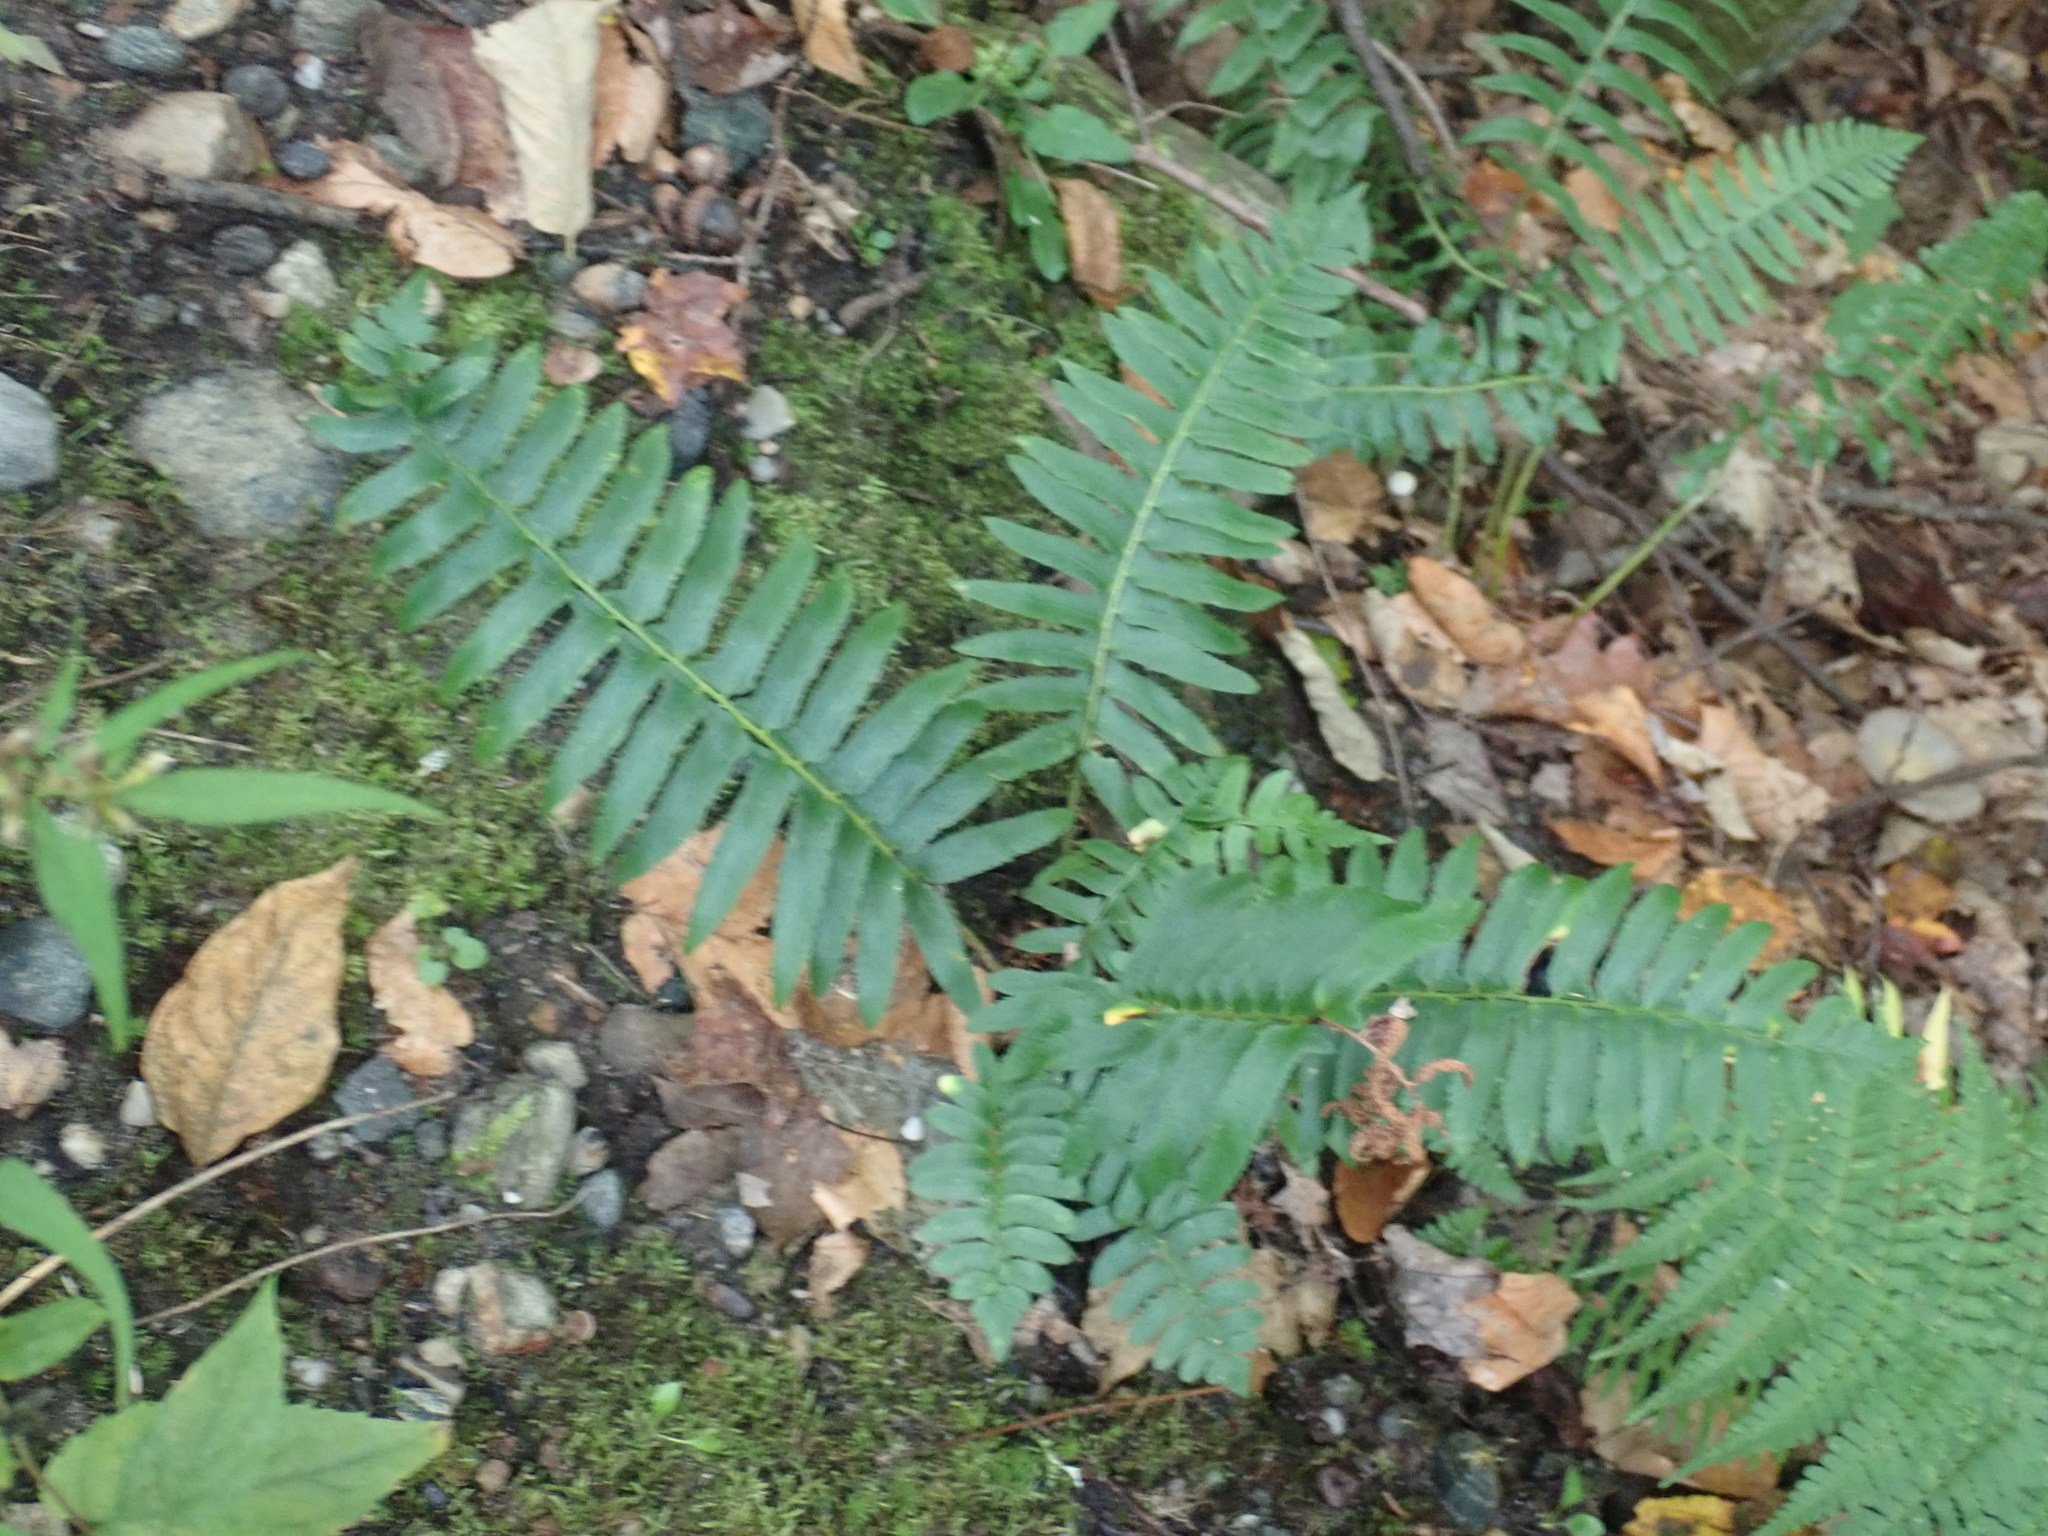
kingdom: Plantae
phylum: Tracheophyta
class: Polypodiopsida
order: Polypodiales
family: Dryopteridaceae
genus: Polystichum
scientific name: Polystichum acrostichoides
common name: Christmas fern
